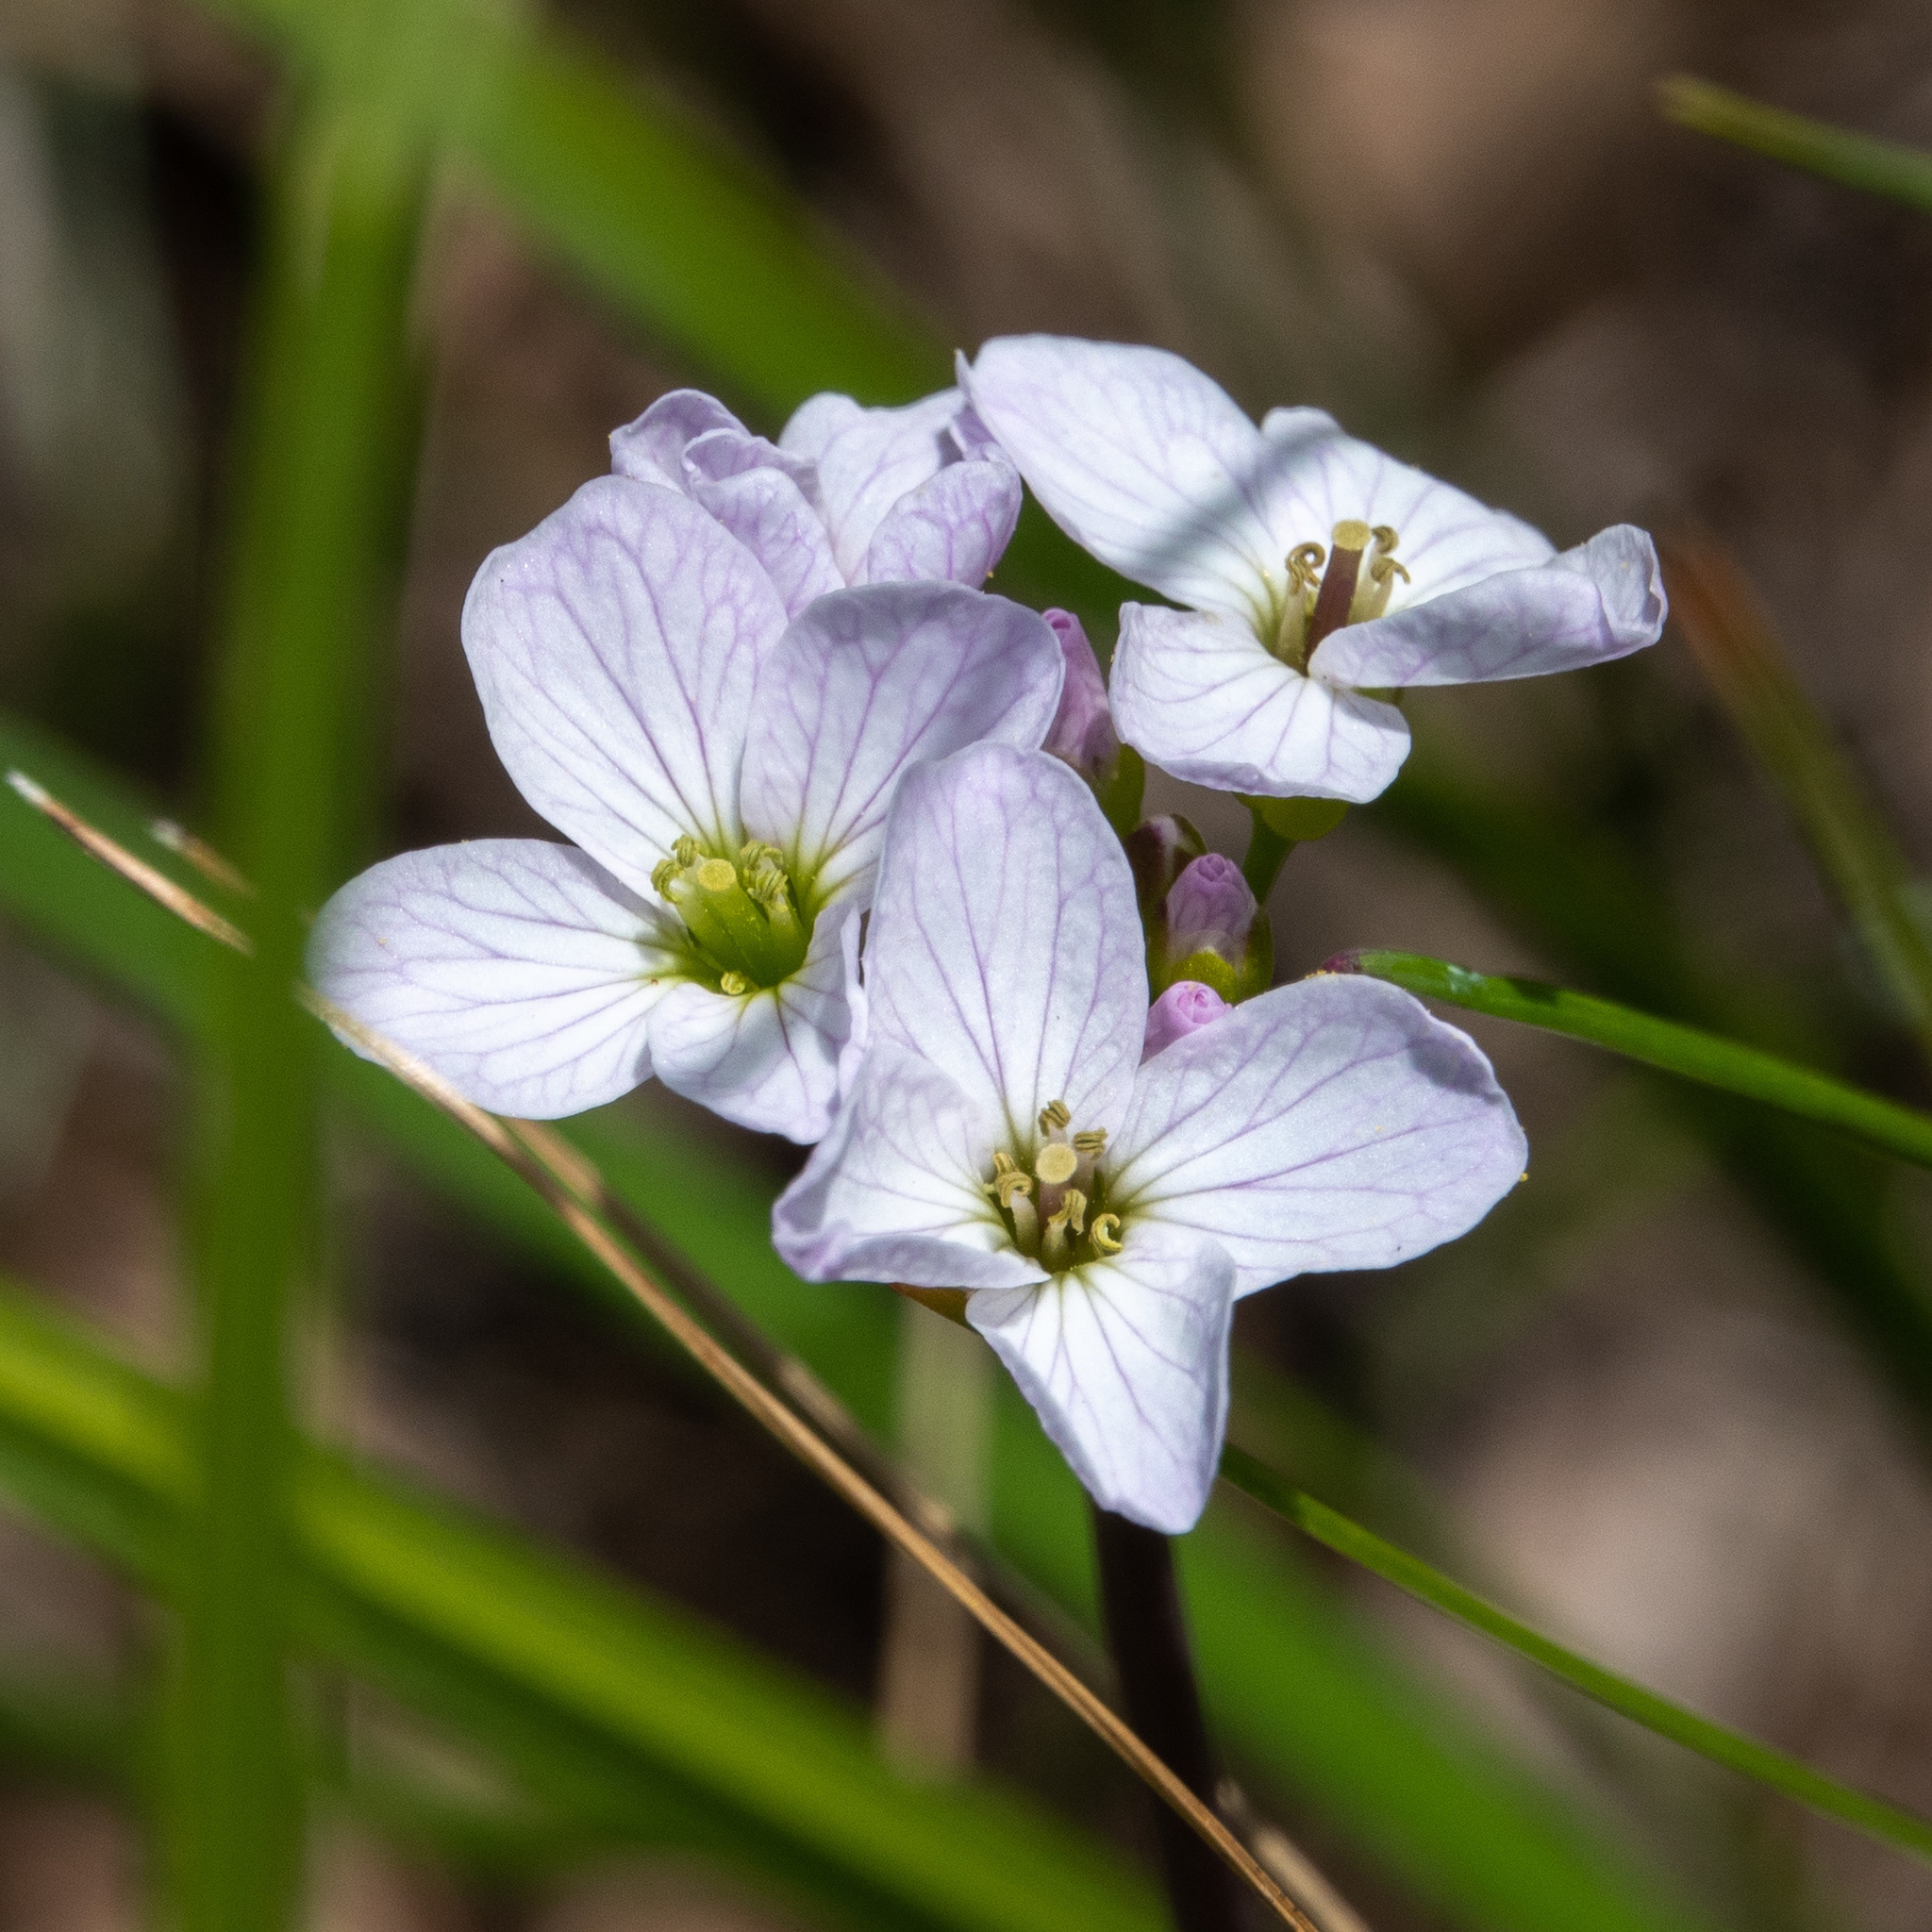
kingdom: Plantae
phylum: Tracheophyta
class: Magnoliopsida
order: Brassicales
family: Brassicaceae
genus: Cardamine
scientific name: Cardamine pratensis
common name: Cuckoo flower
